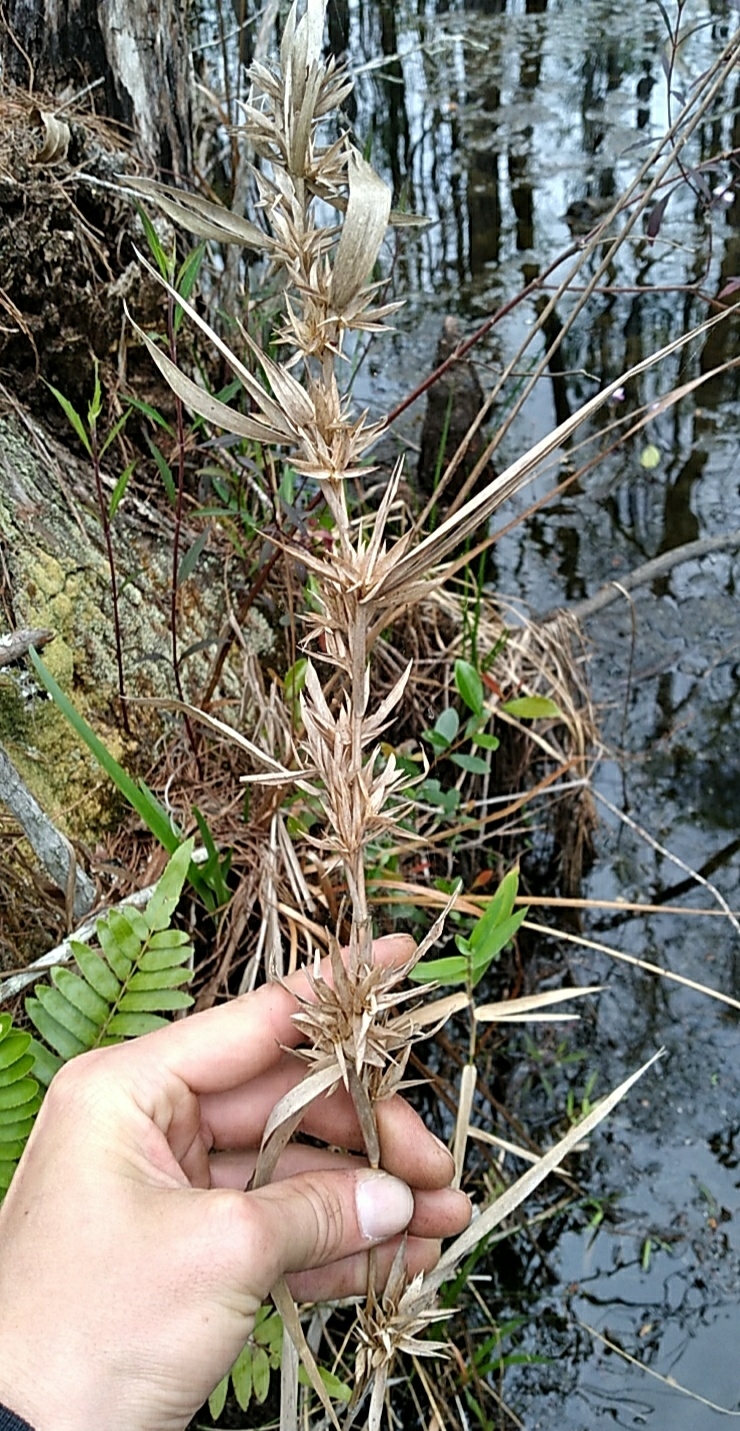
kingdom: Plantae
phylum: Tracheophyta
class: Liliopsida
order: Poales
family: Poaceae
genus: Dichanthelium
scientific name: Dichanthelium scabriusculum
